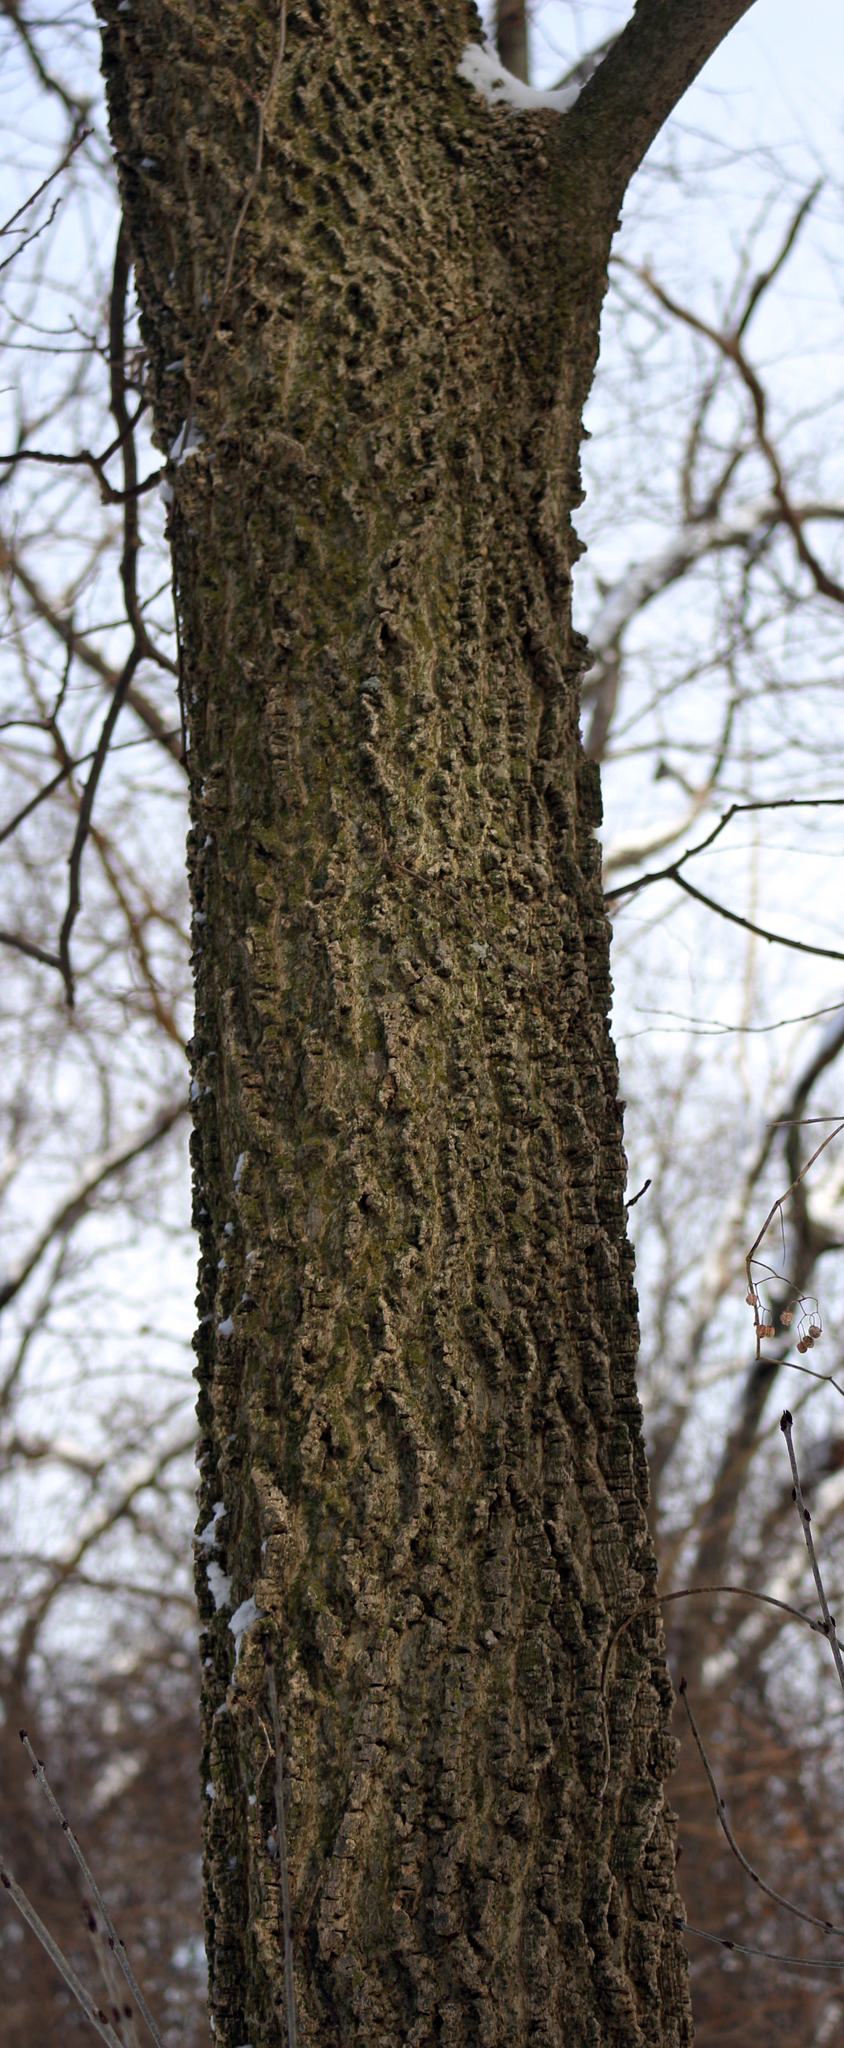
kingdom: Plantae
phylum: Tracheophyta
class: Magnoliopsida
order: Rosales
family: Cannabaceae
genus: Celtis
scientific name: Celtis occidentalis
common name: Common hackberry
